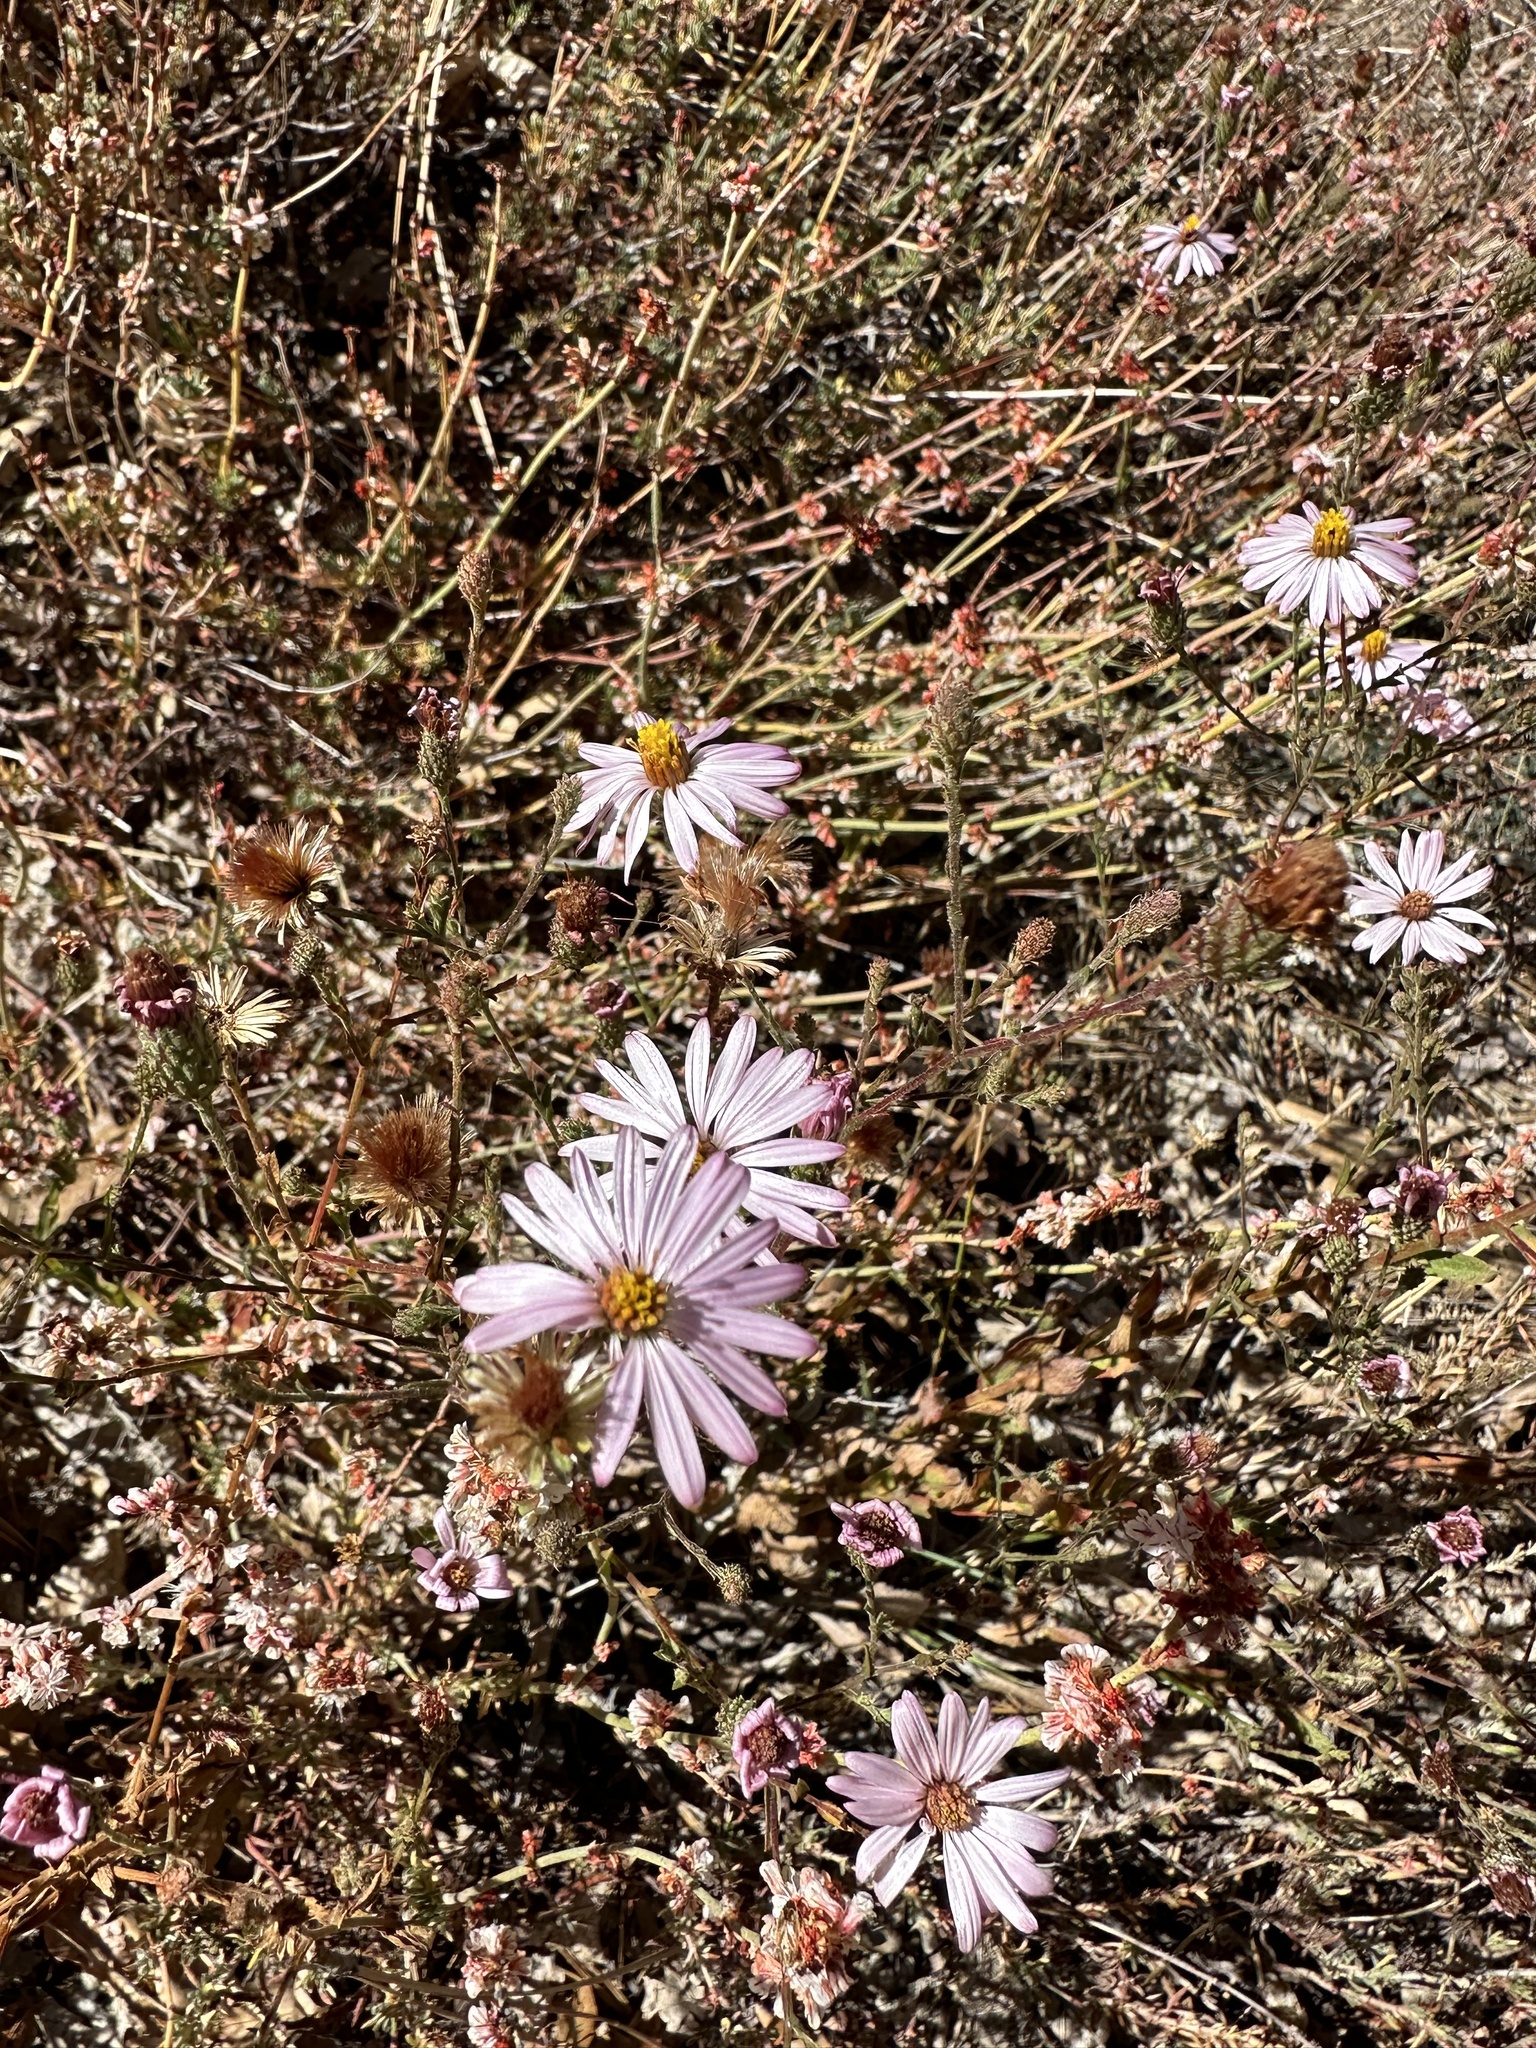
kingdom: Plantae
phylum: Tracheophyta
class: Magnoliopsida
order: Asterales
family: Asteraceae
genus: Corethrogyne
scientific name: Corethrogyne filaginifolia
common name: Sand-aster
